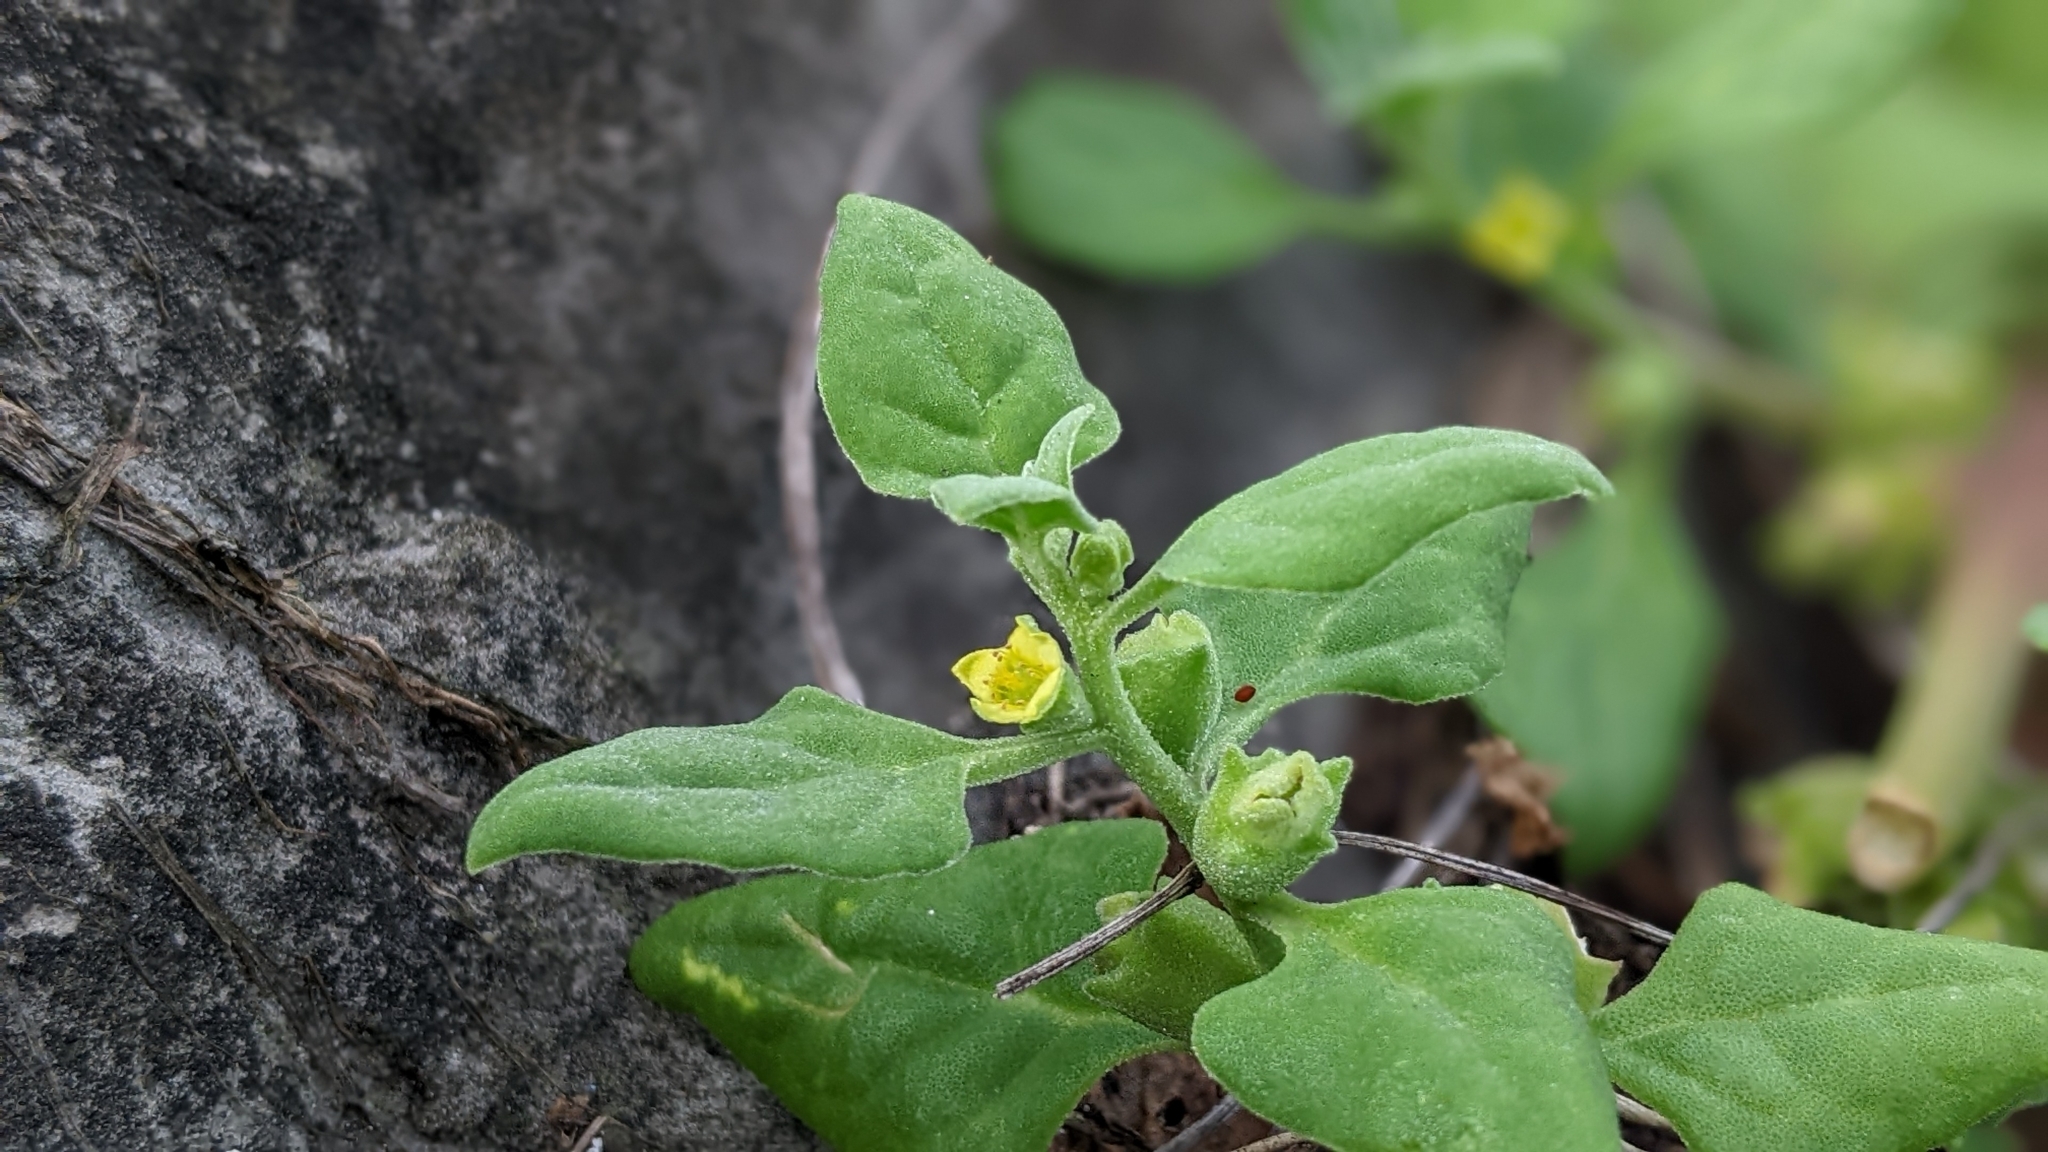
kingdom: Plantae
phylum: Tracheophyta
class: Magnoliopsida
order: Caryophyllales
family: Aizoaceae
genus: Tetragonia
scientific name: Tetragonia tetragonoides
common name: New zealand-spinach
